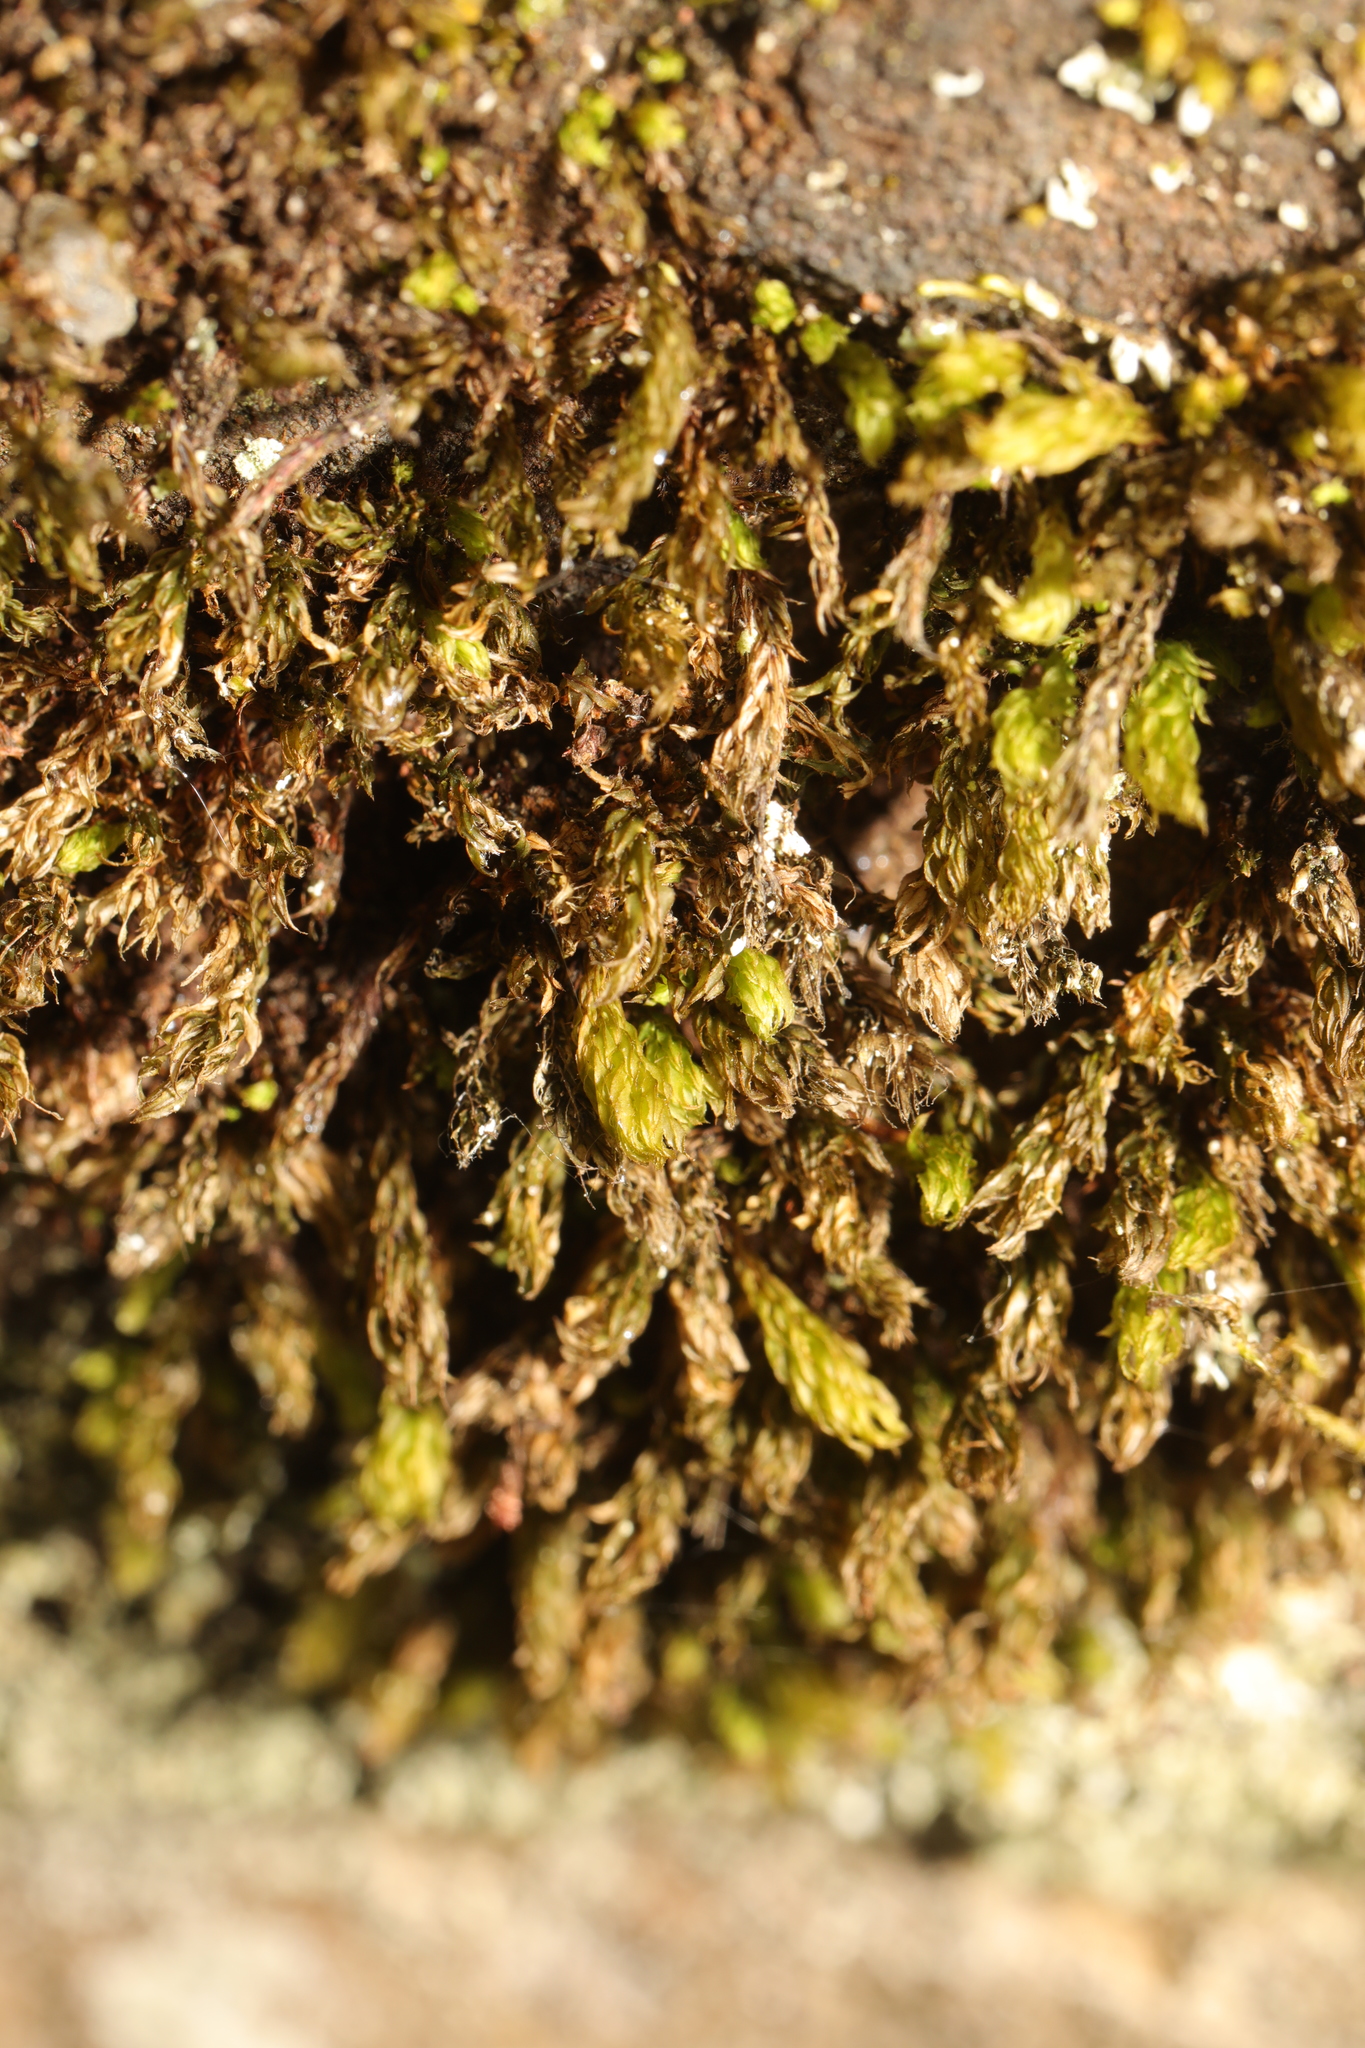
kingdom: Plantae
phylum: Bryophyta
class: Bryopsida
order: Bryales
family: Mniaceae
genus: Mnium
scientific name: Mnium hornum
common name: Swan's-neck leafy moss
